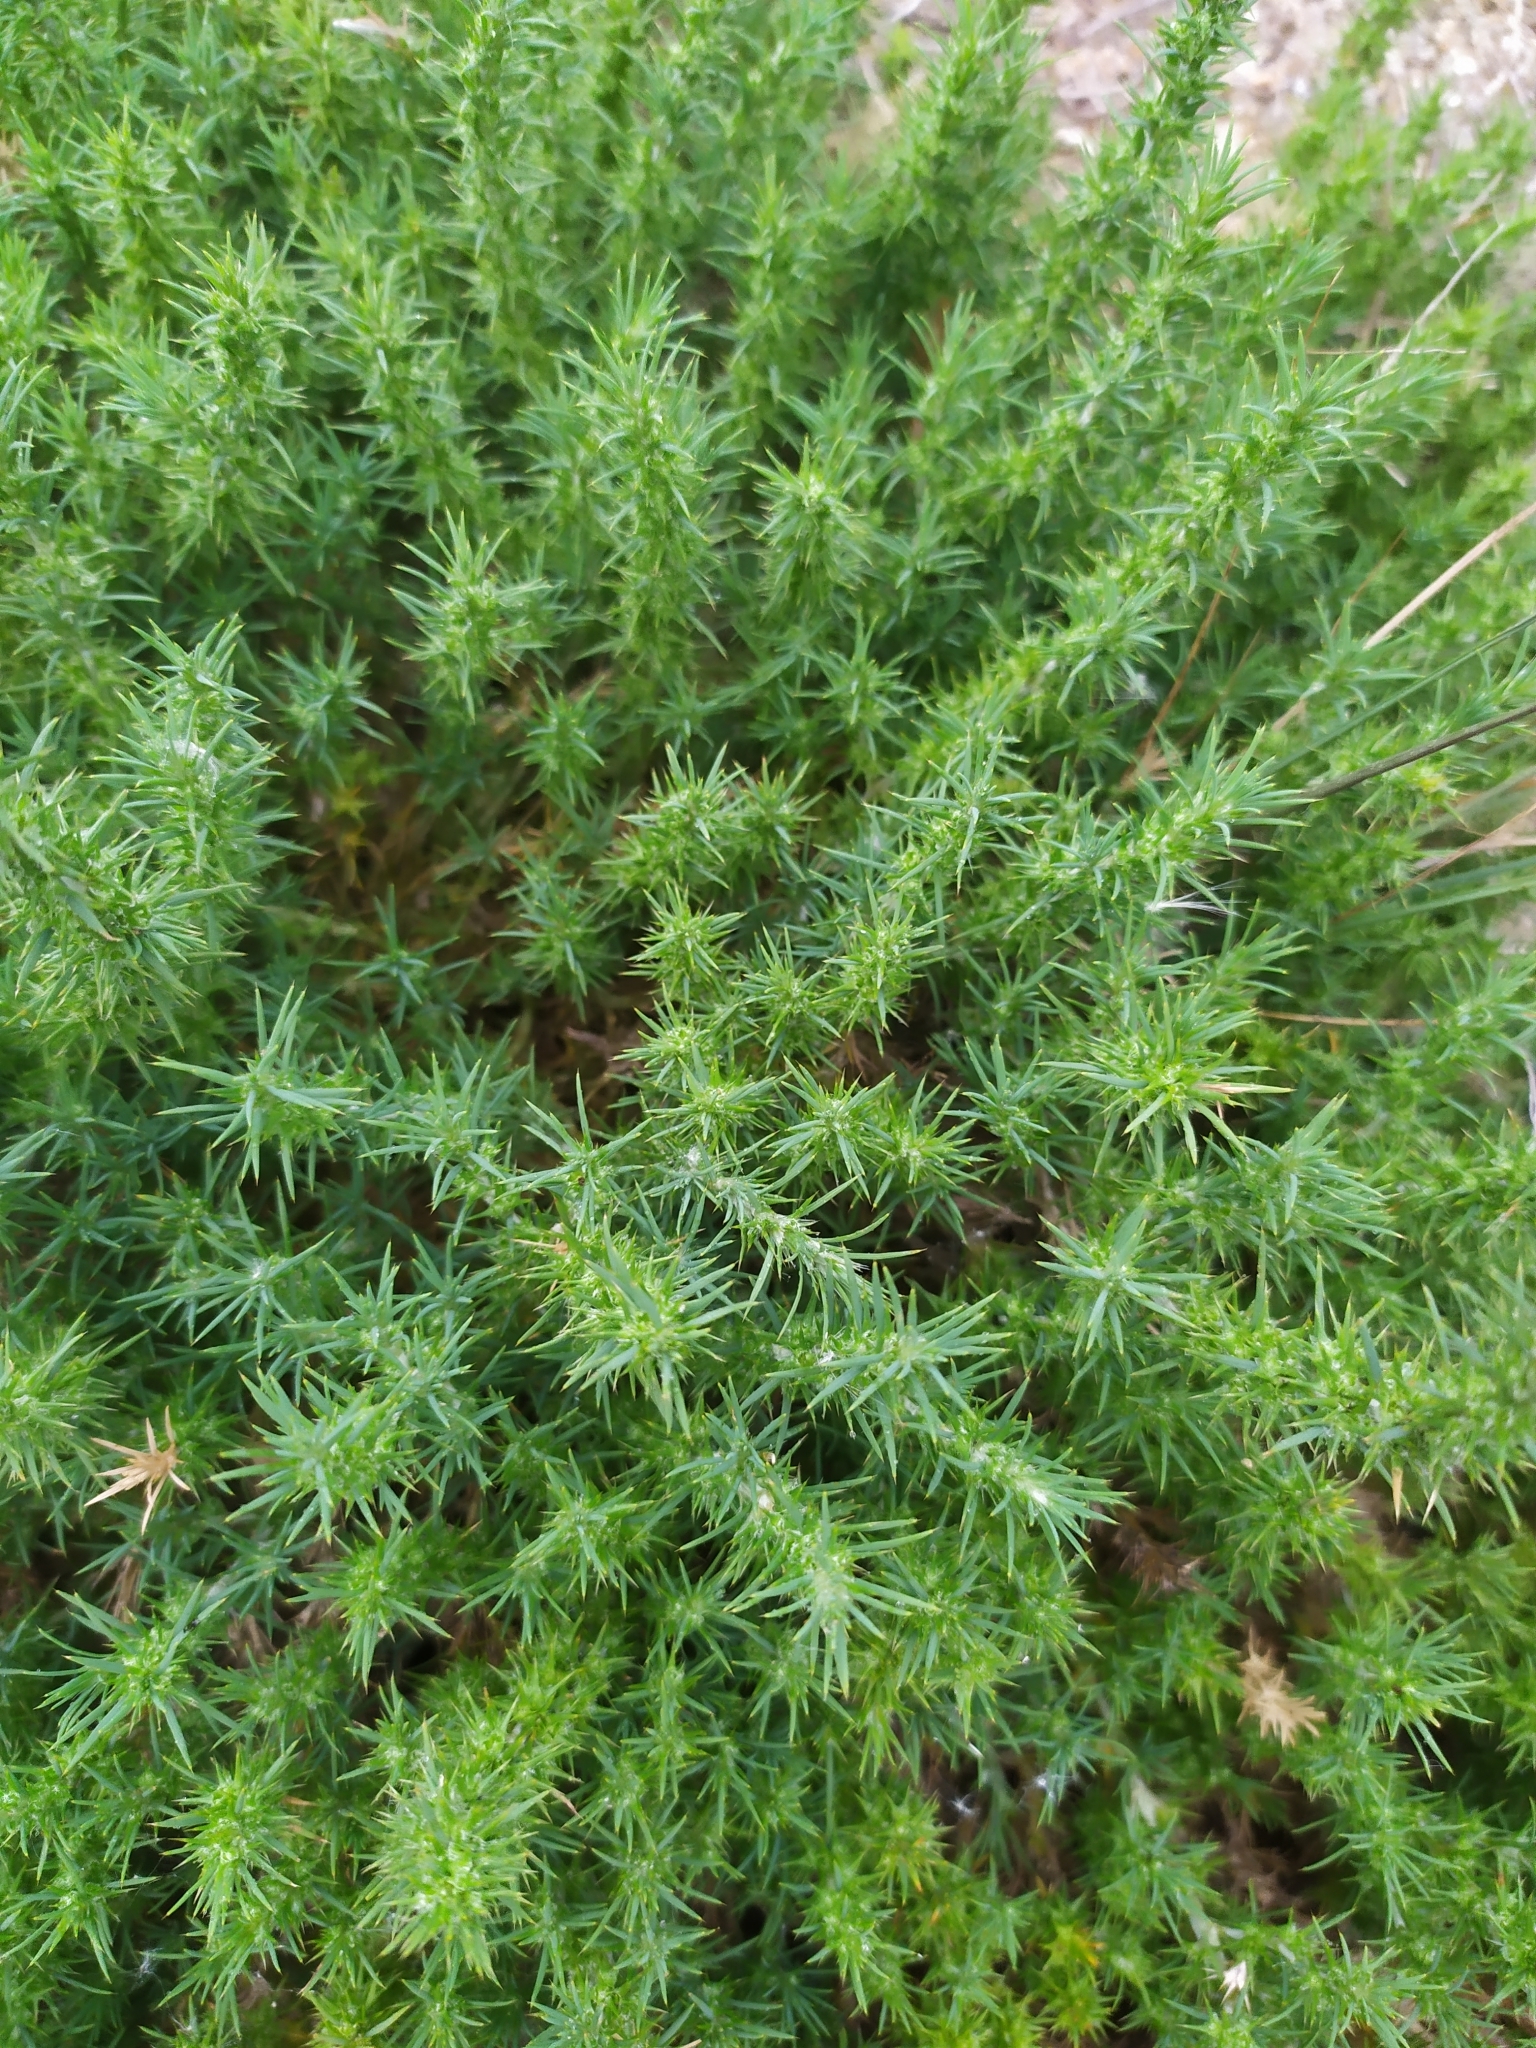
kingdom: Plantae
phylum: Tracheophyta
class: Magnoliopsida
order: Caryophyllales
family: Caryophyllaceae
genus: Cardionema
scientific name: Cardionema ramosissima
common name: Sandcarpet
